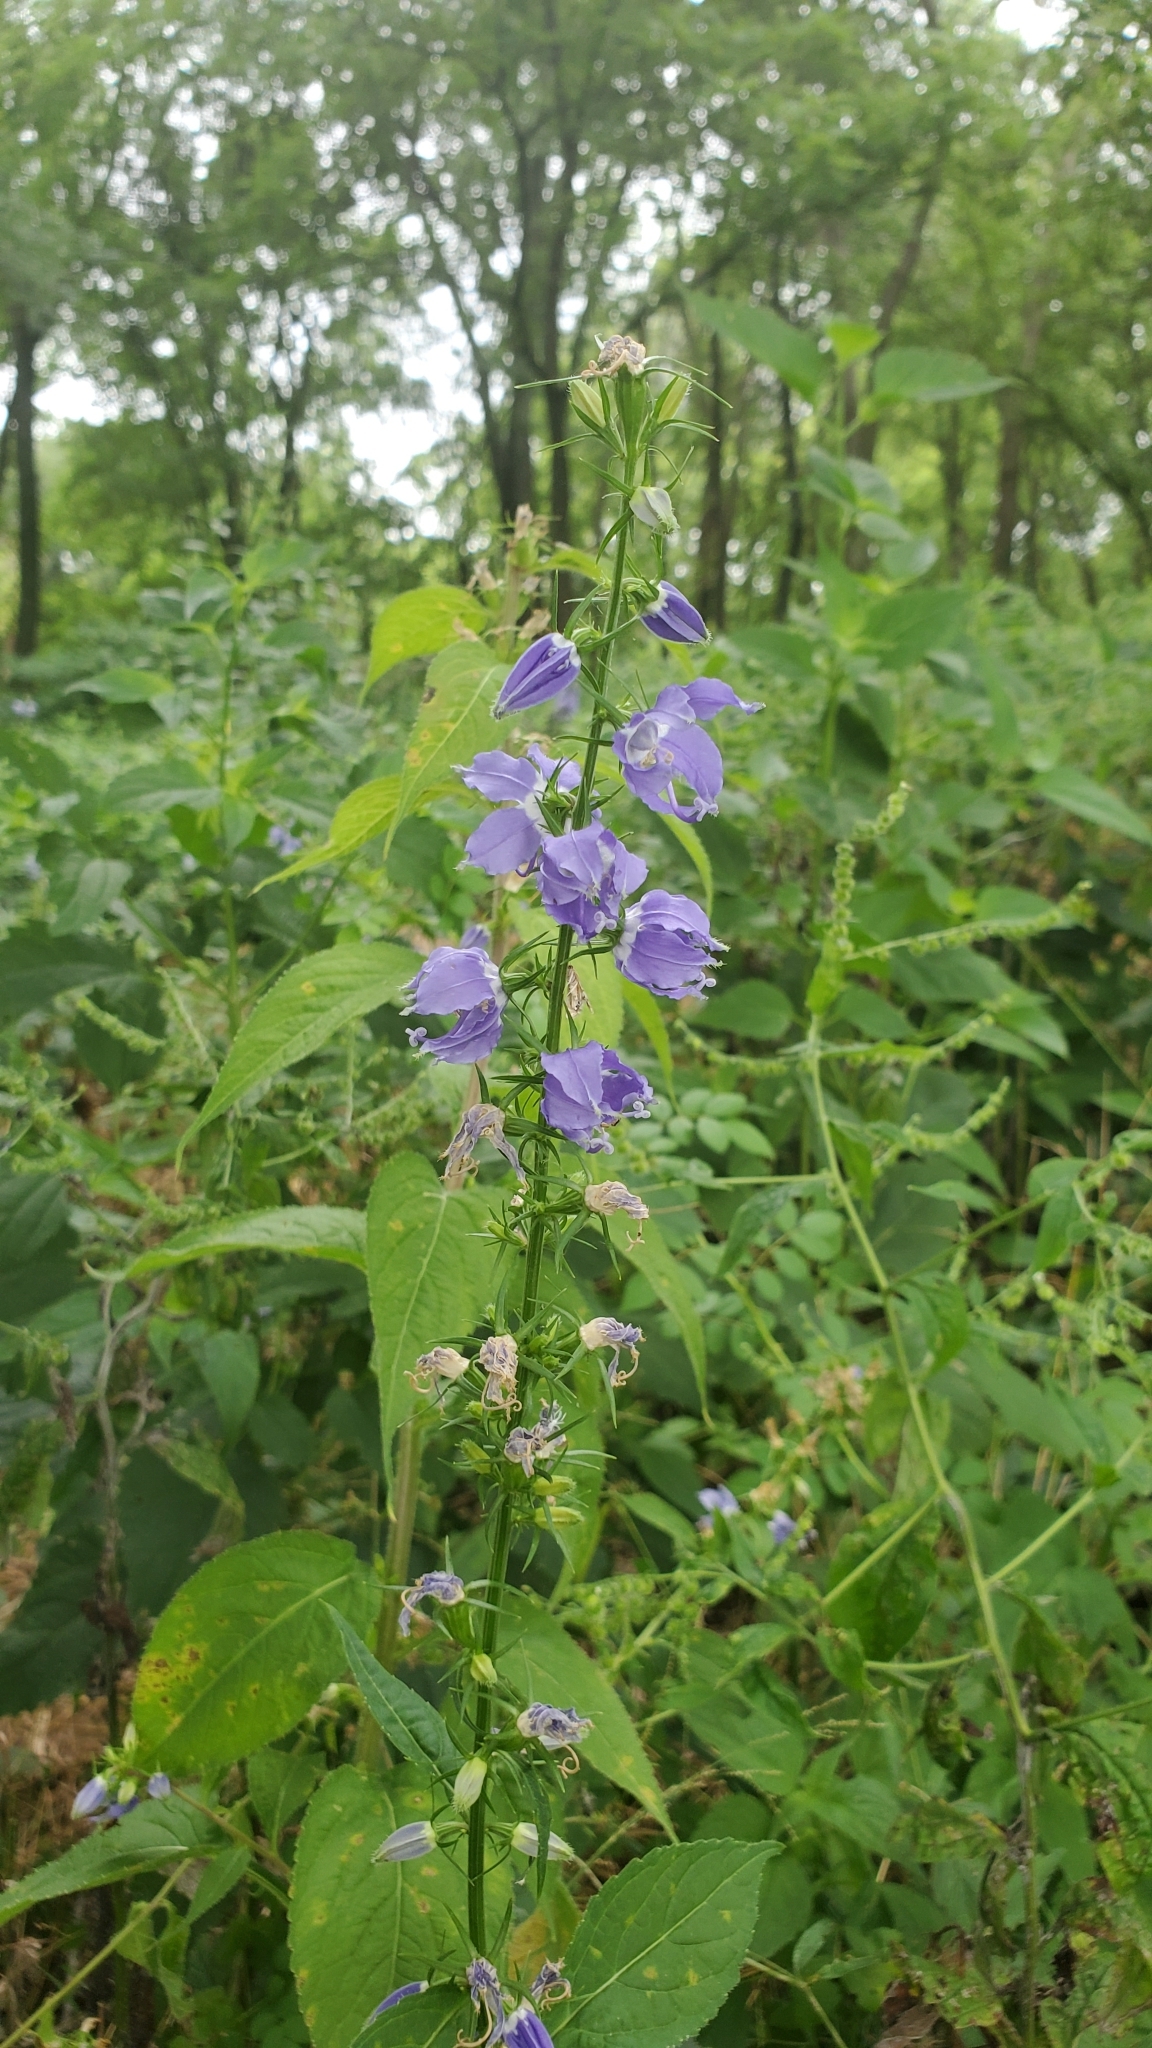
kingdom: Plantae
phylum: Tracheophyta
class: Magnoliopsida
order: Asterales
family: Campanulaceae
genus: Campanulastrum
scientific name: Campanulastrum americanum
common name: American bellflower
